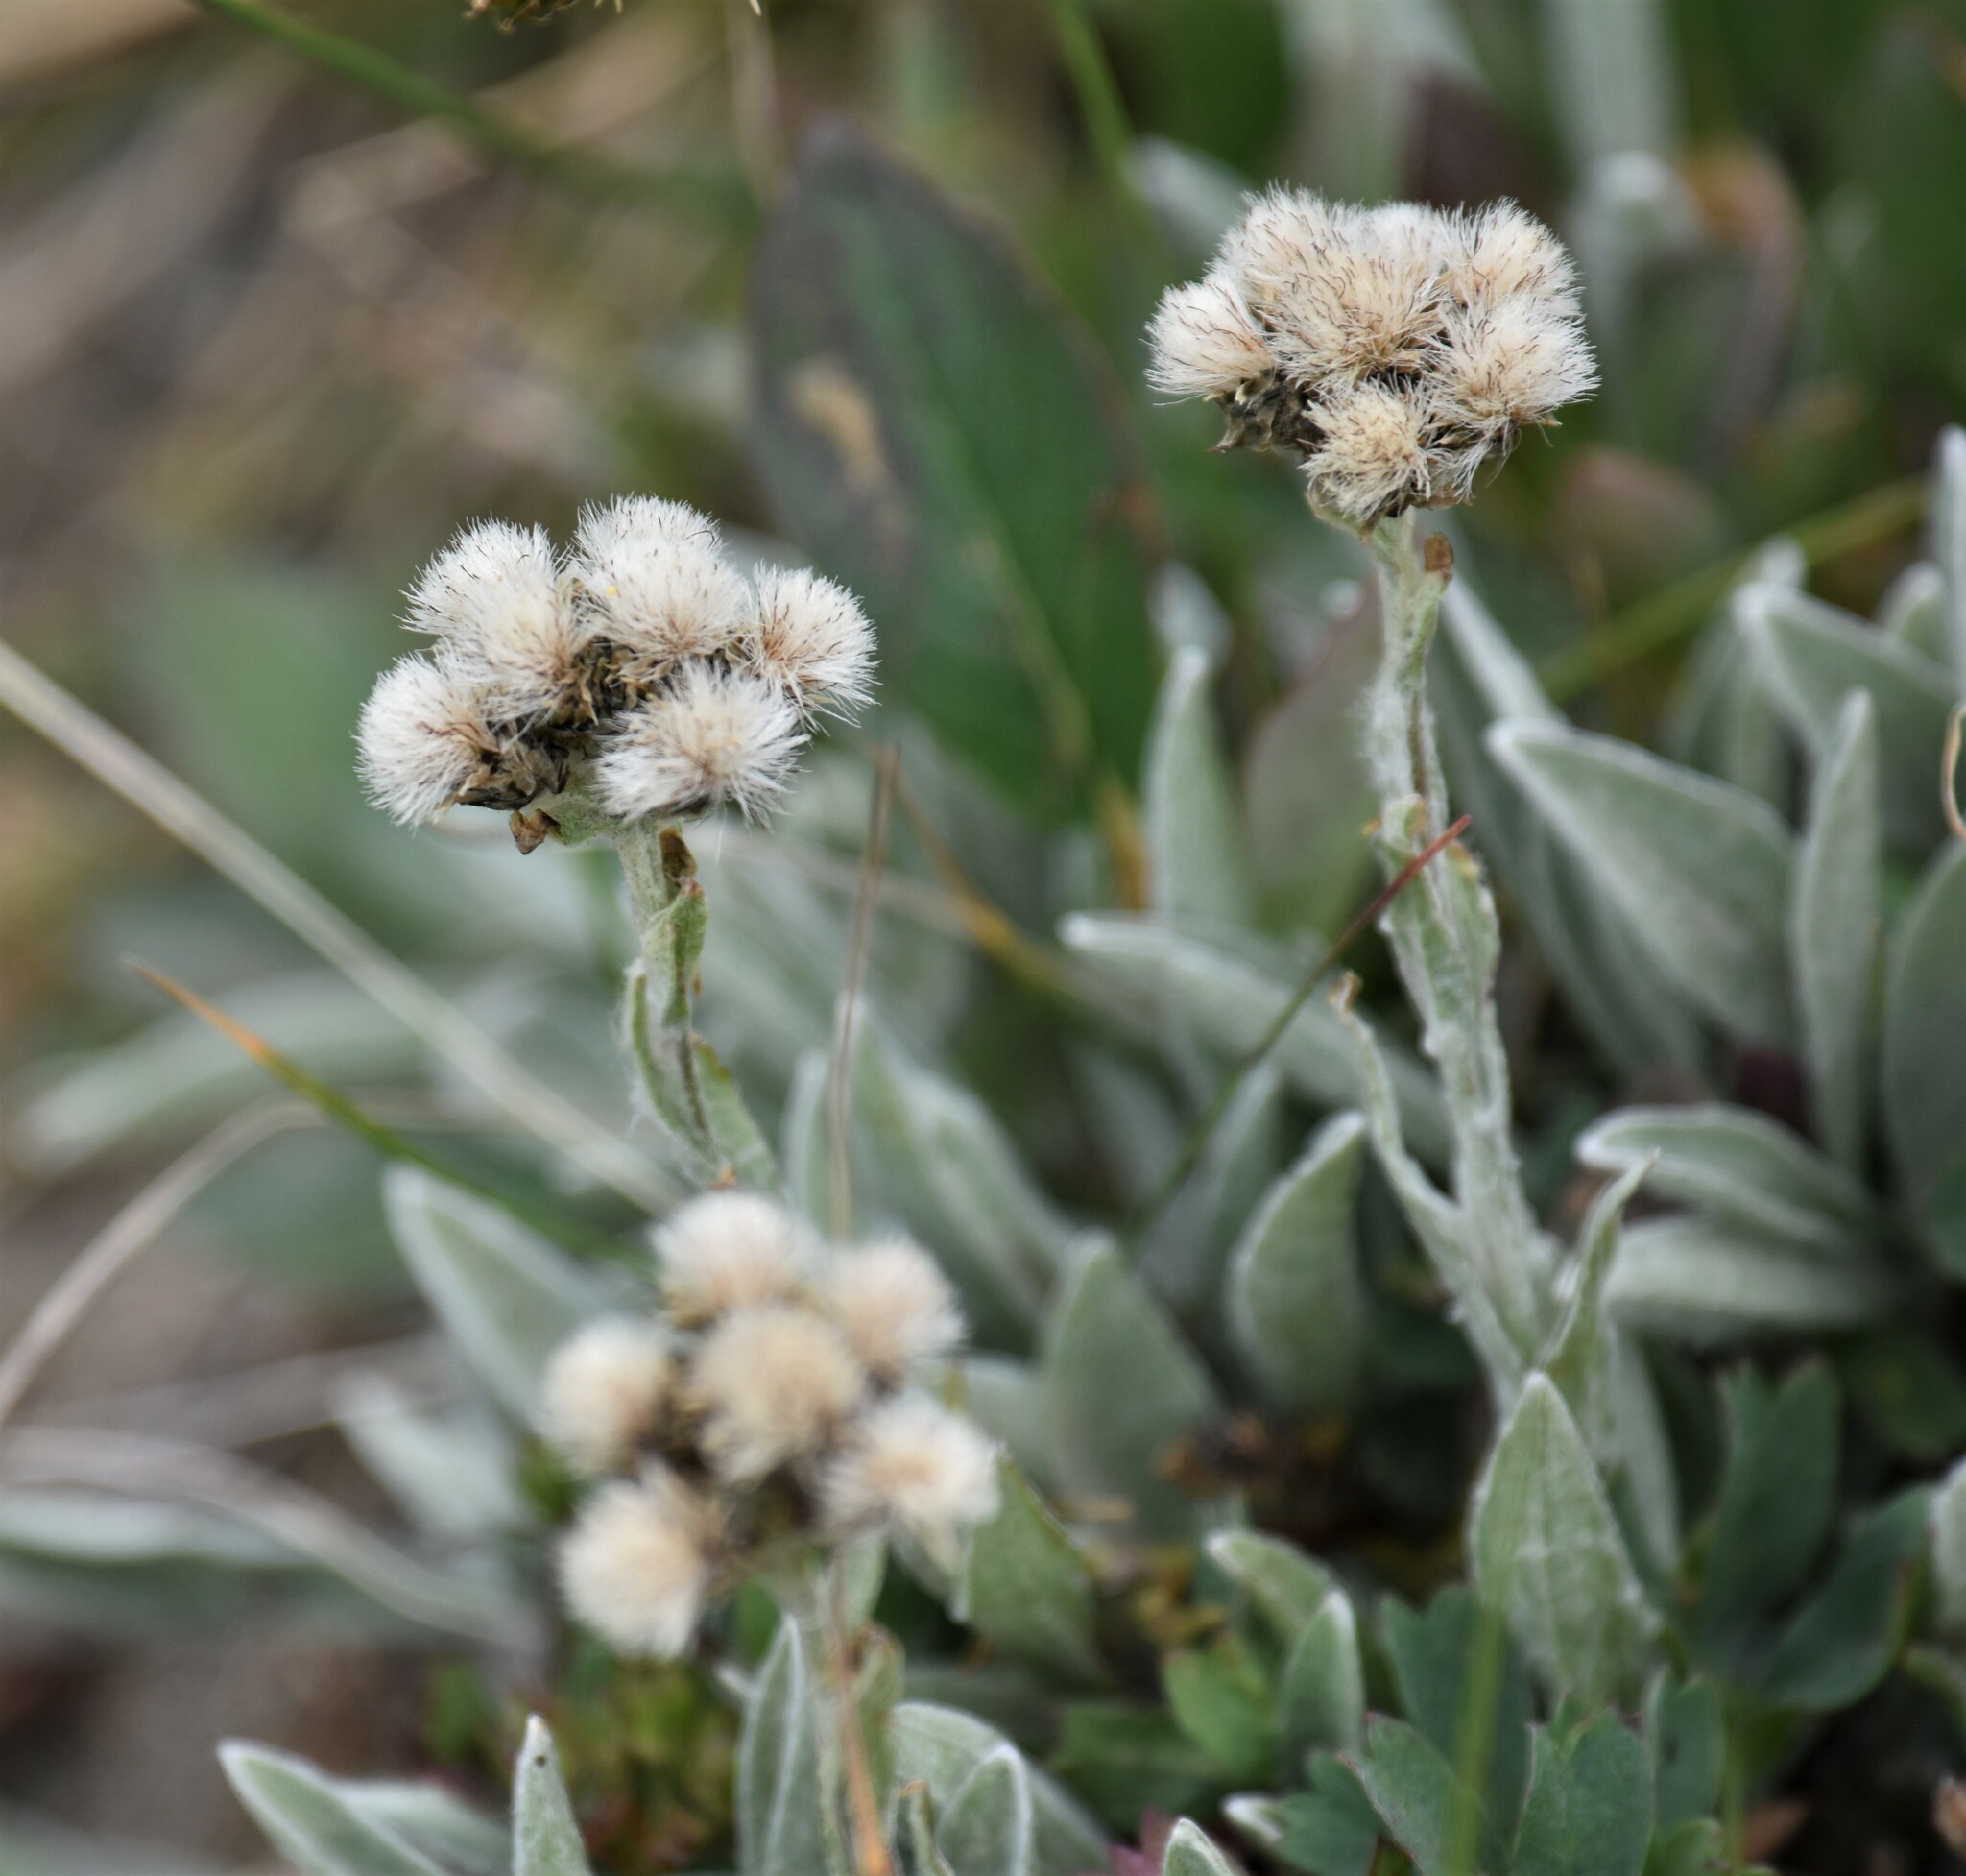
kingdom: Plantae
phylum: Tracheophyta
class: Magnoliopsida
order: Asterales
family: Asteraceae
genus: Antennaria
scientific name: Antennaria lanata
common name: Woolly pussytoes
